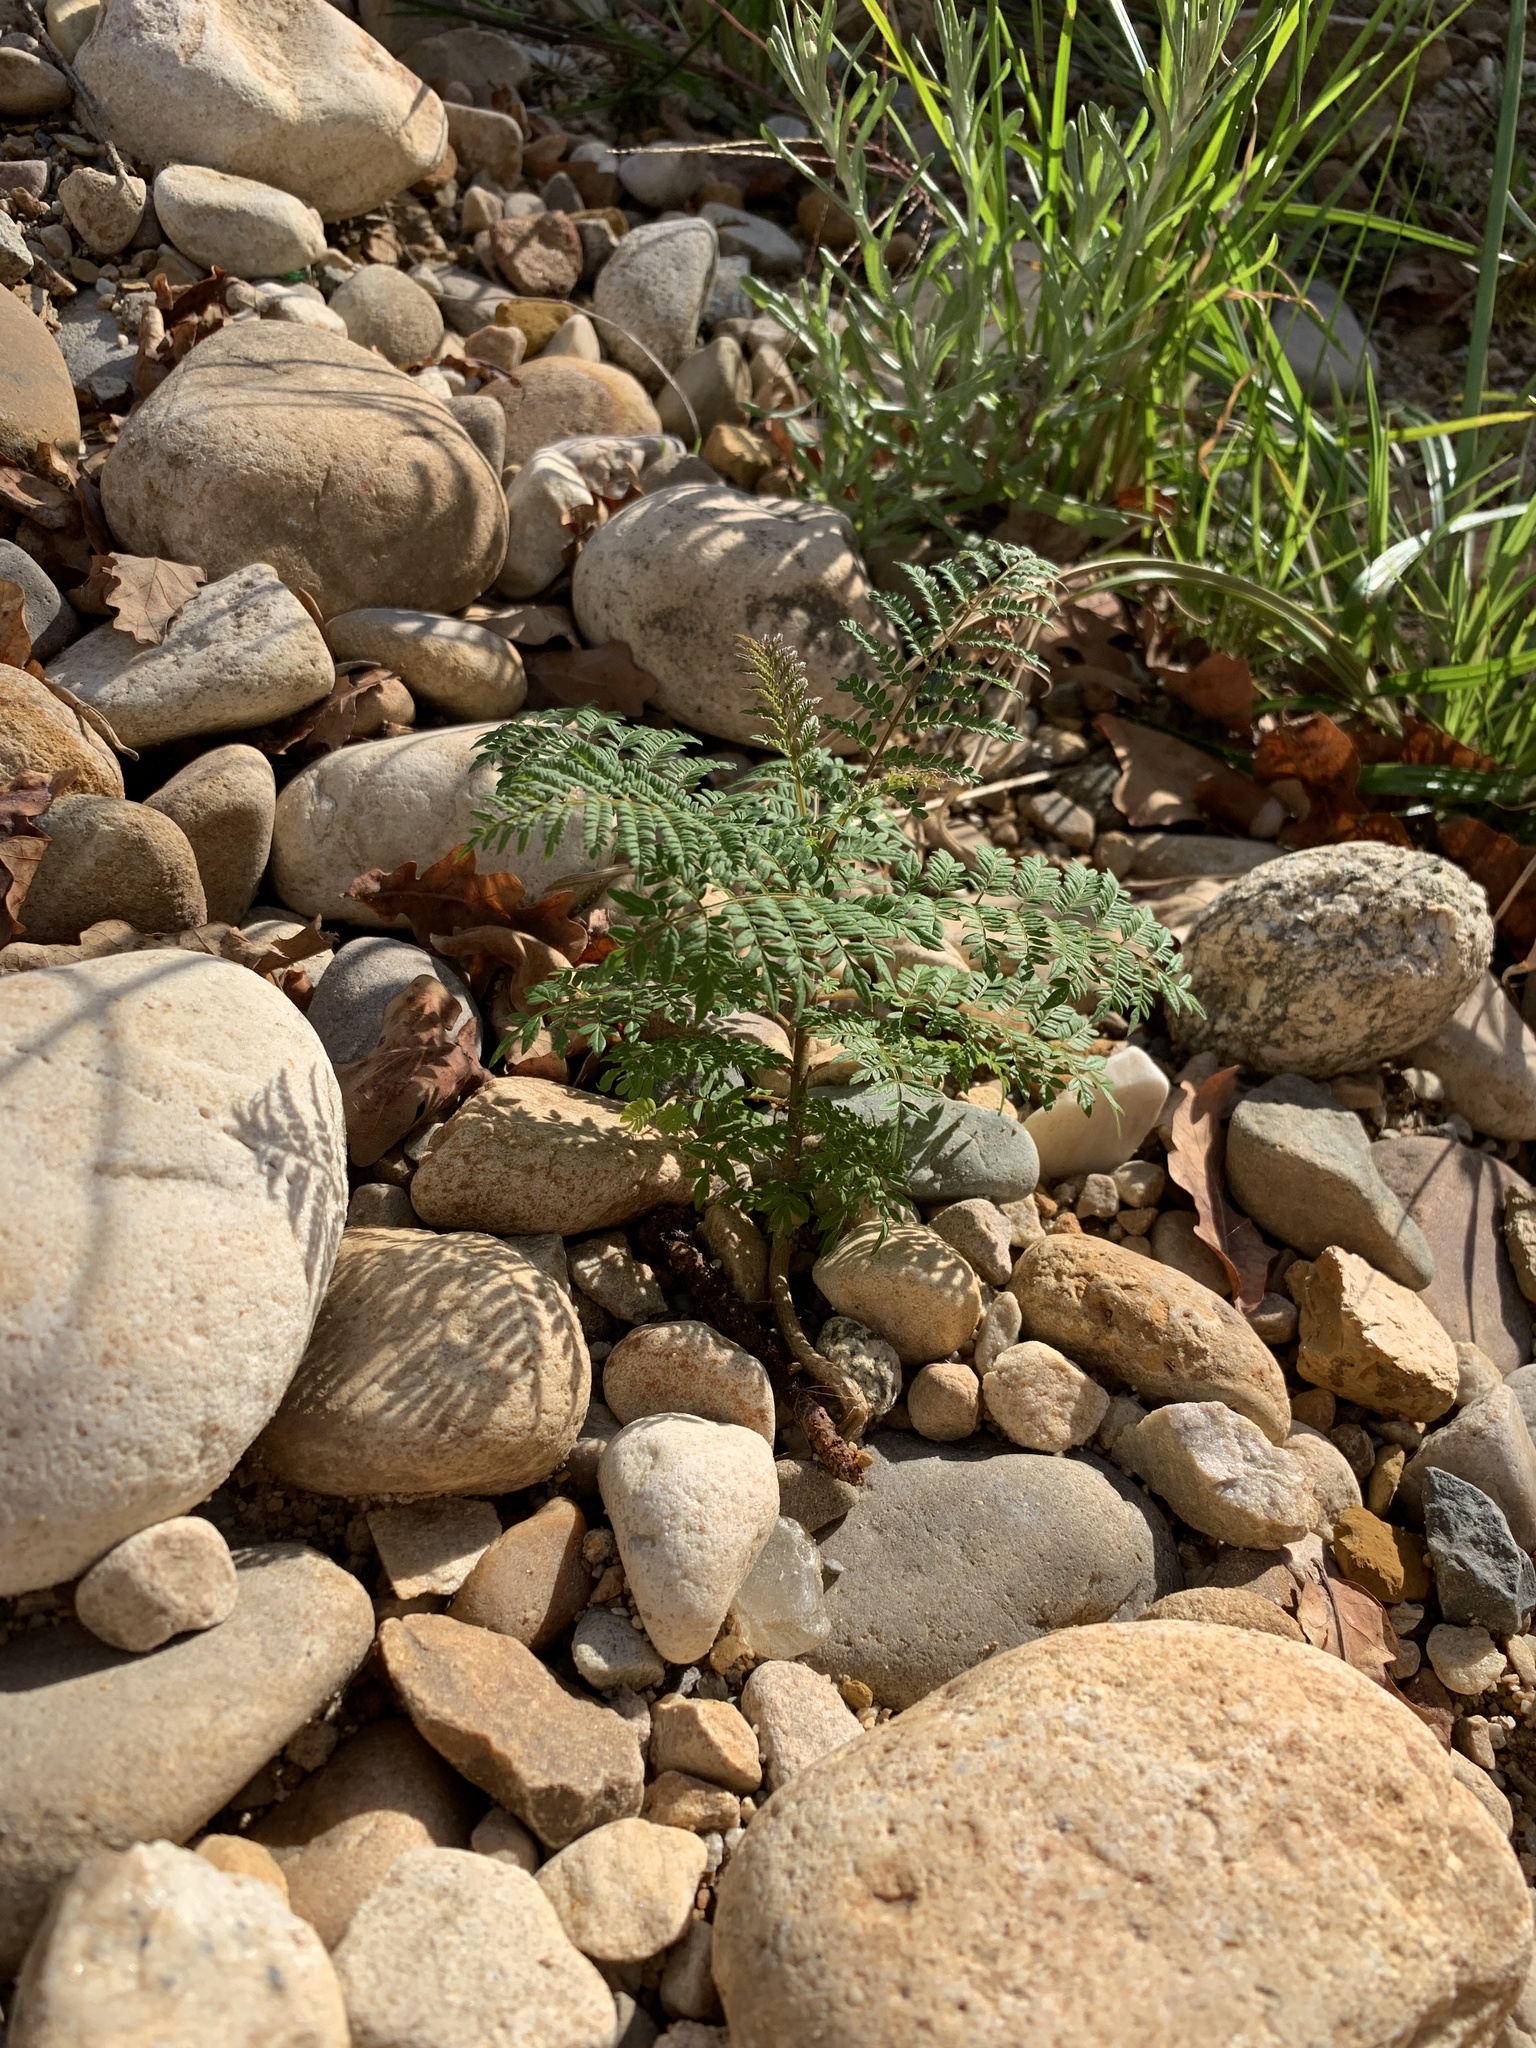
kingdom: Plantae
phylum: Tracheophyta
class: Magnoliopsida
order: Lamiales
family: Bignoniaceae
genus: Jacaranda
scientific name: Jacaranda mimosifolia
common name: Black poui
